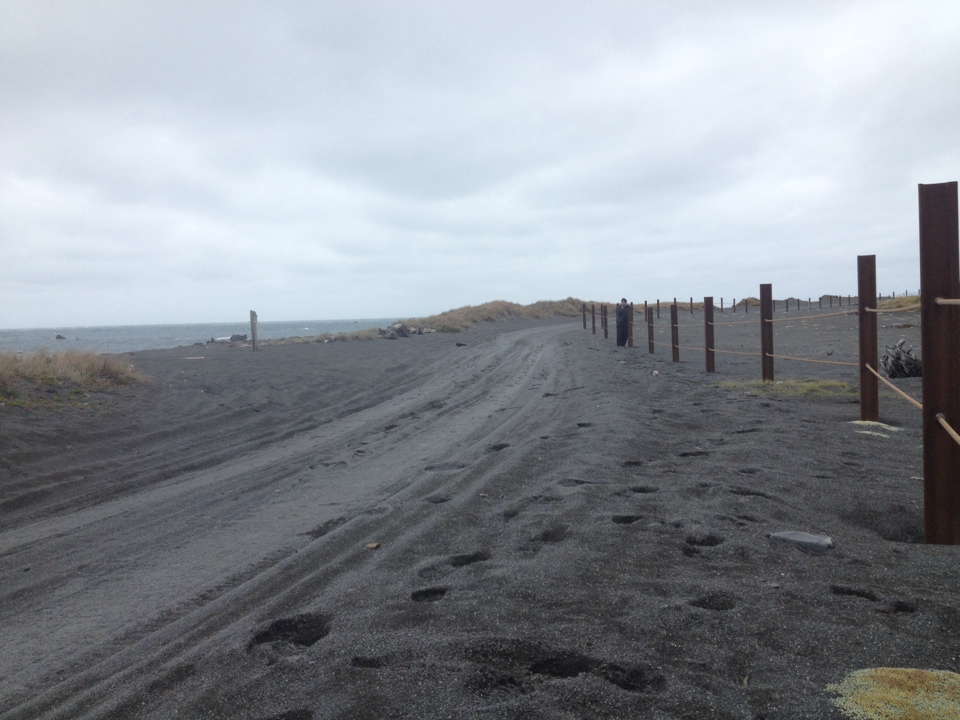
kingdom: Animalia
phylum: Chordata
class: Aves
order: Charadriiformes
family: Charadriidae
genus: Anarhynchus
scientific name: Anarhynchus
